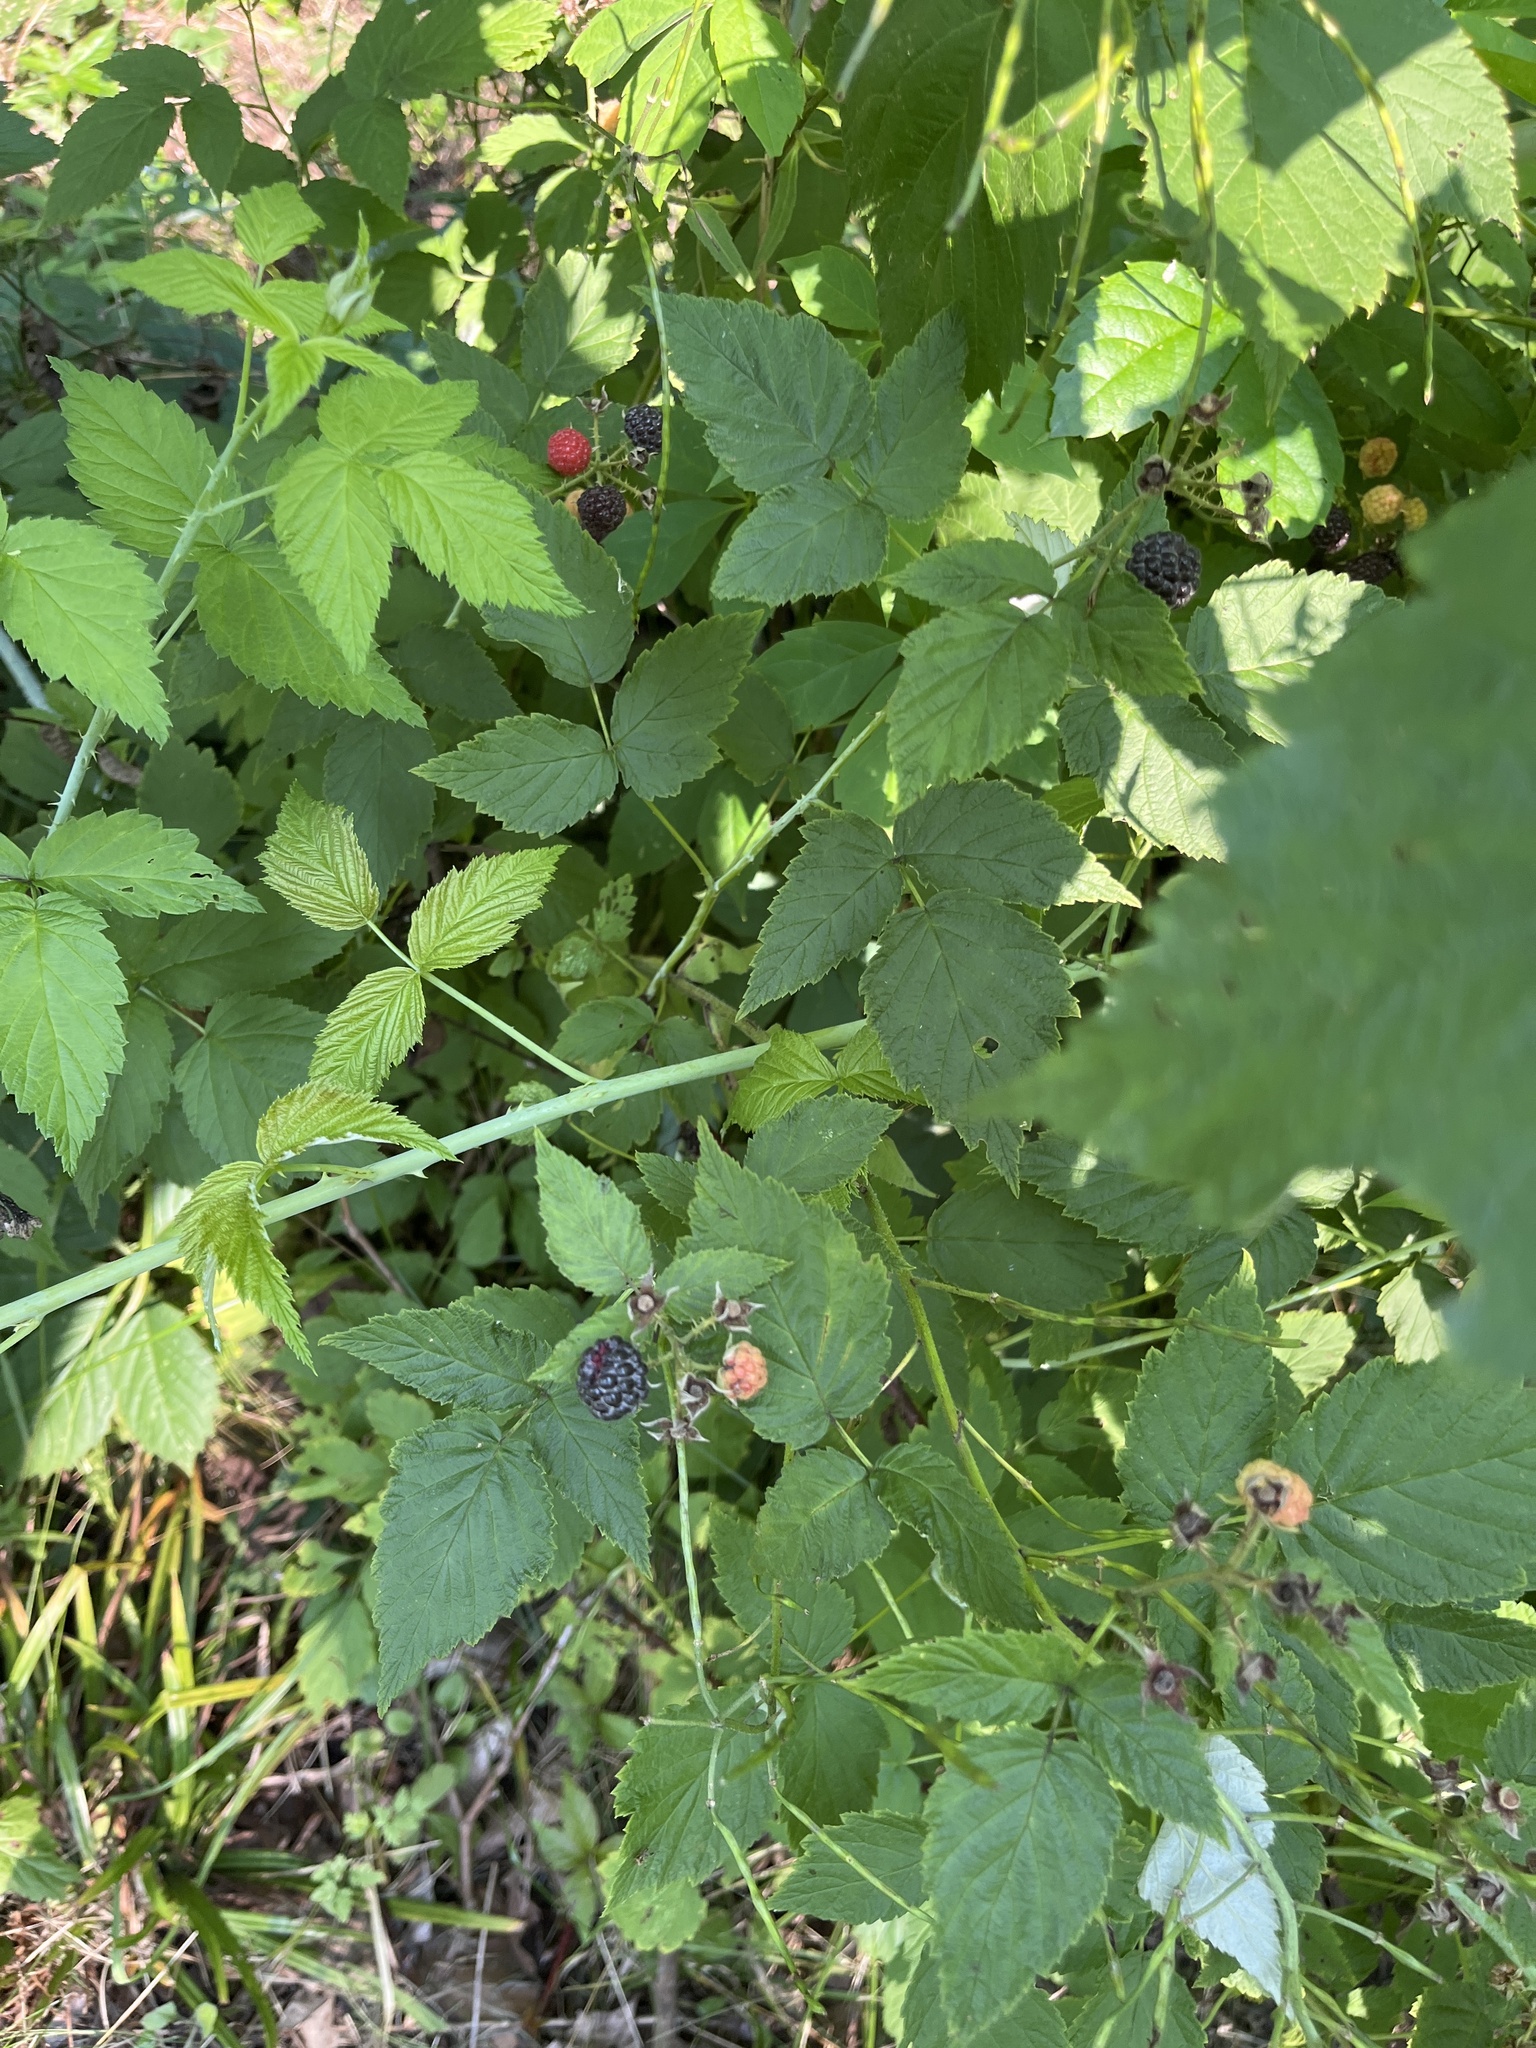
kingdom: Plantae
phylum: Tracheophyta
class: Magnoliopsida
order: Rosales
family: Rosaceae
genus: Rubus
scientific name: Rubus occidentalis
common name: Black raspberry
